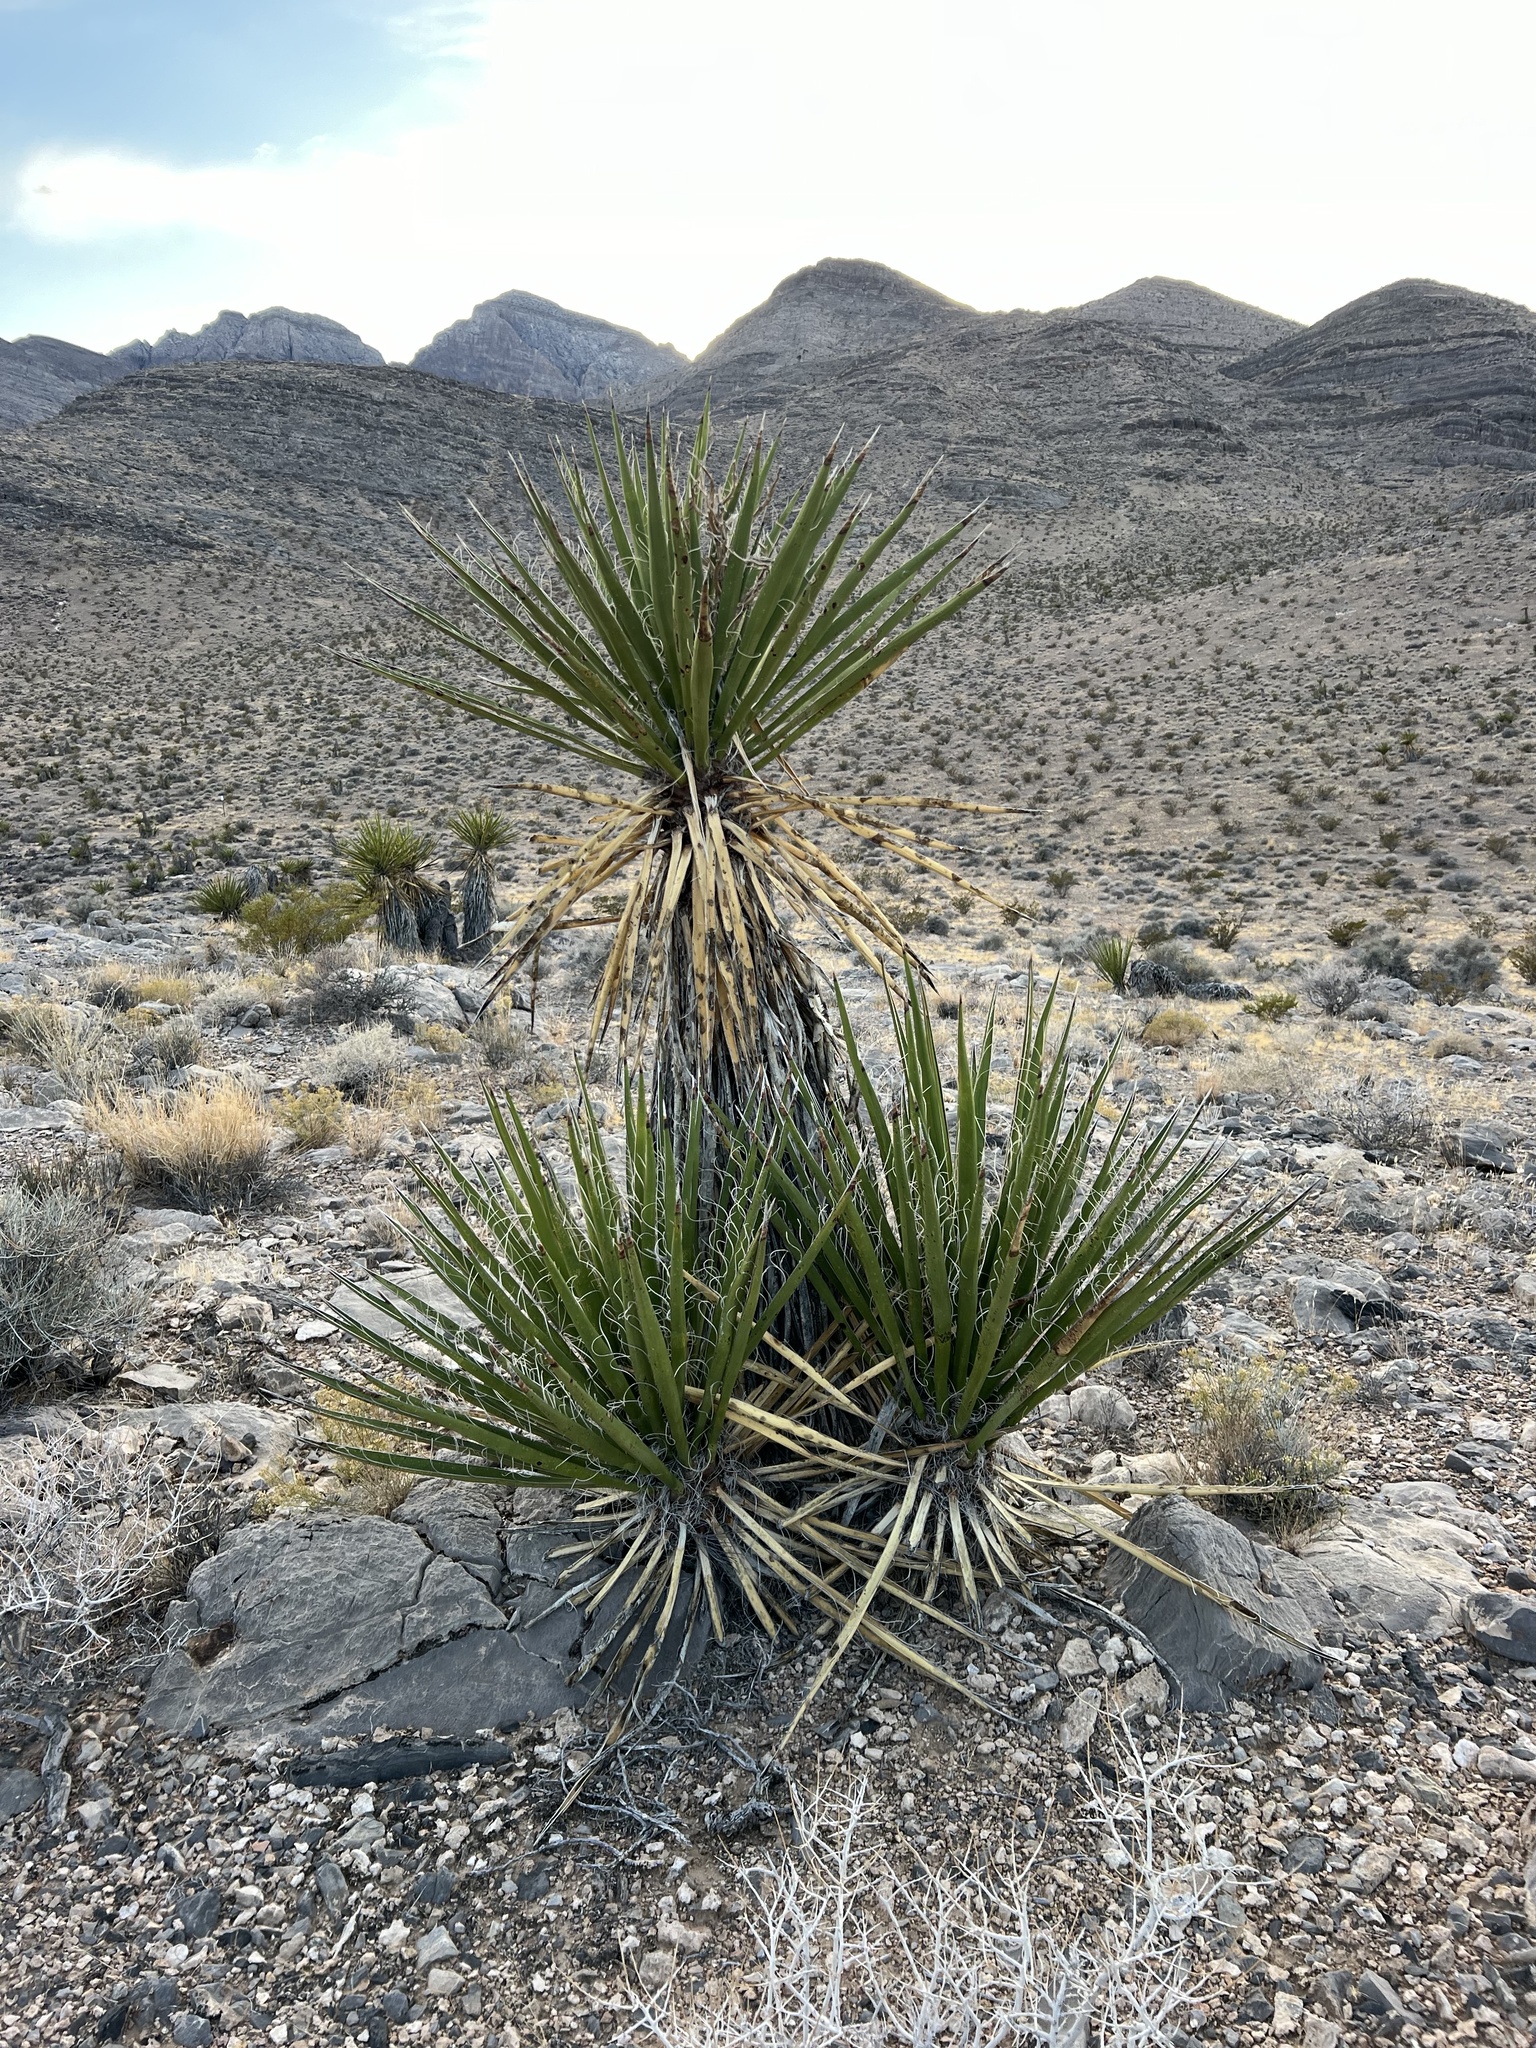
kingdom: Plantae
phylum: Tracheophyta
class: Liliopsida
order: Asparagales
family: Asparagaceae
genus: Yucca
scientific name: Yucca schidigera
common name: Mojave yucca
